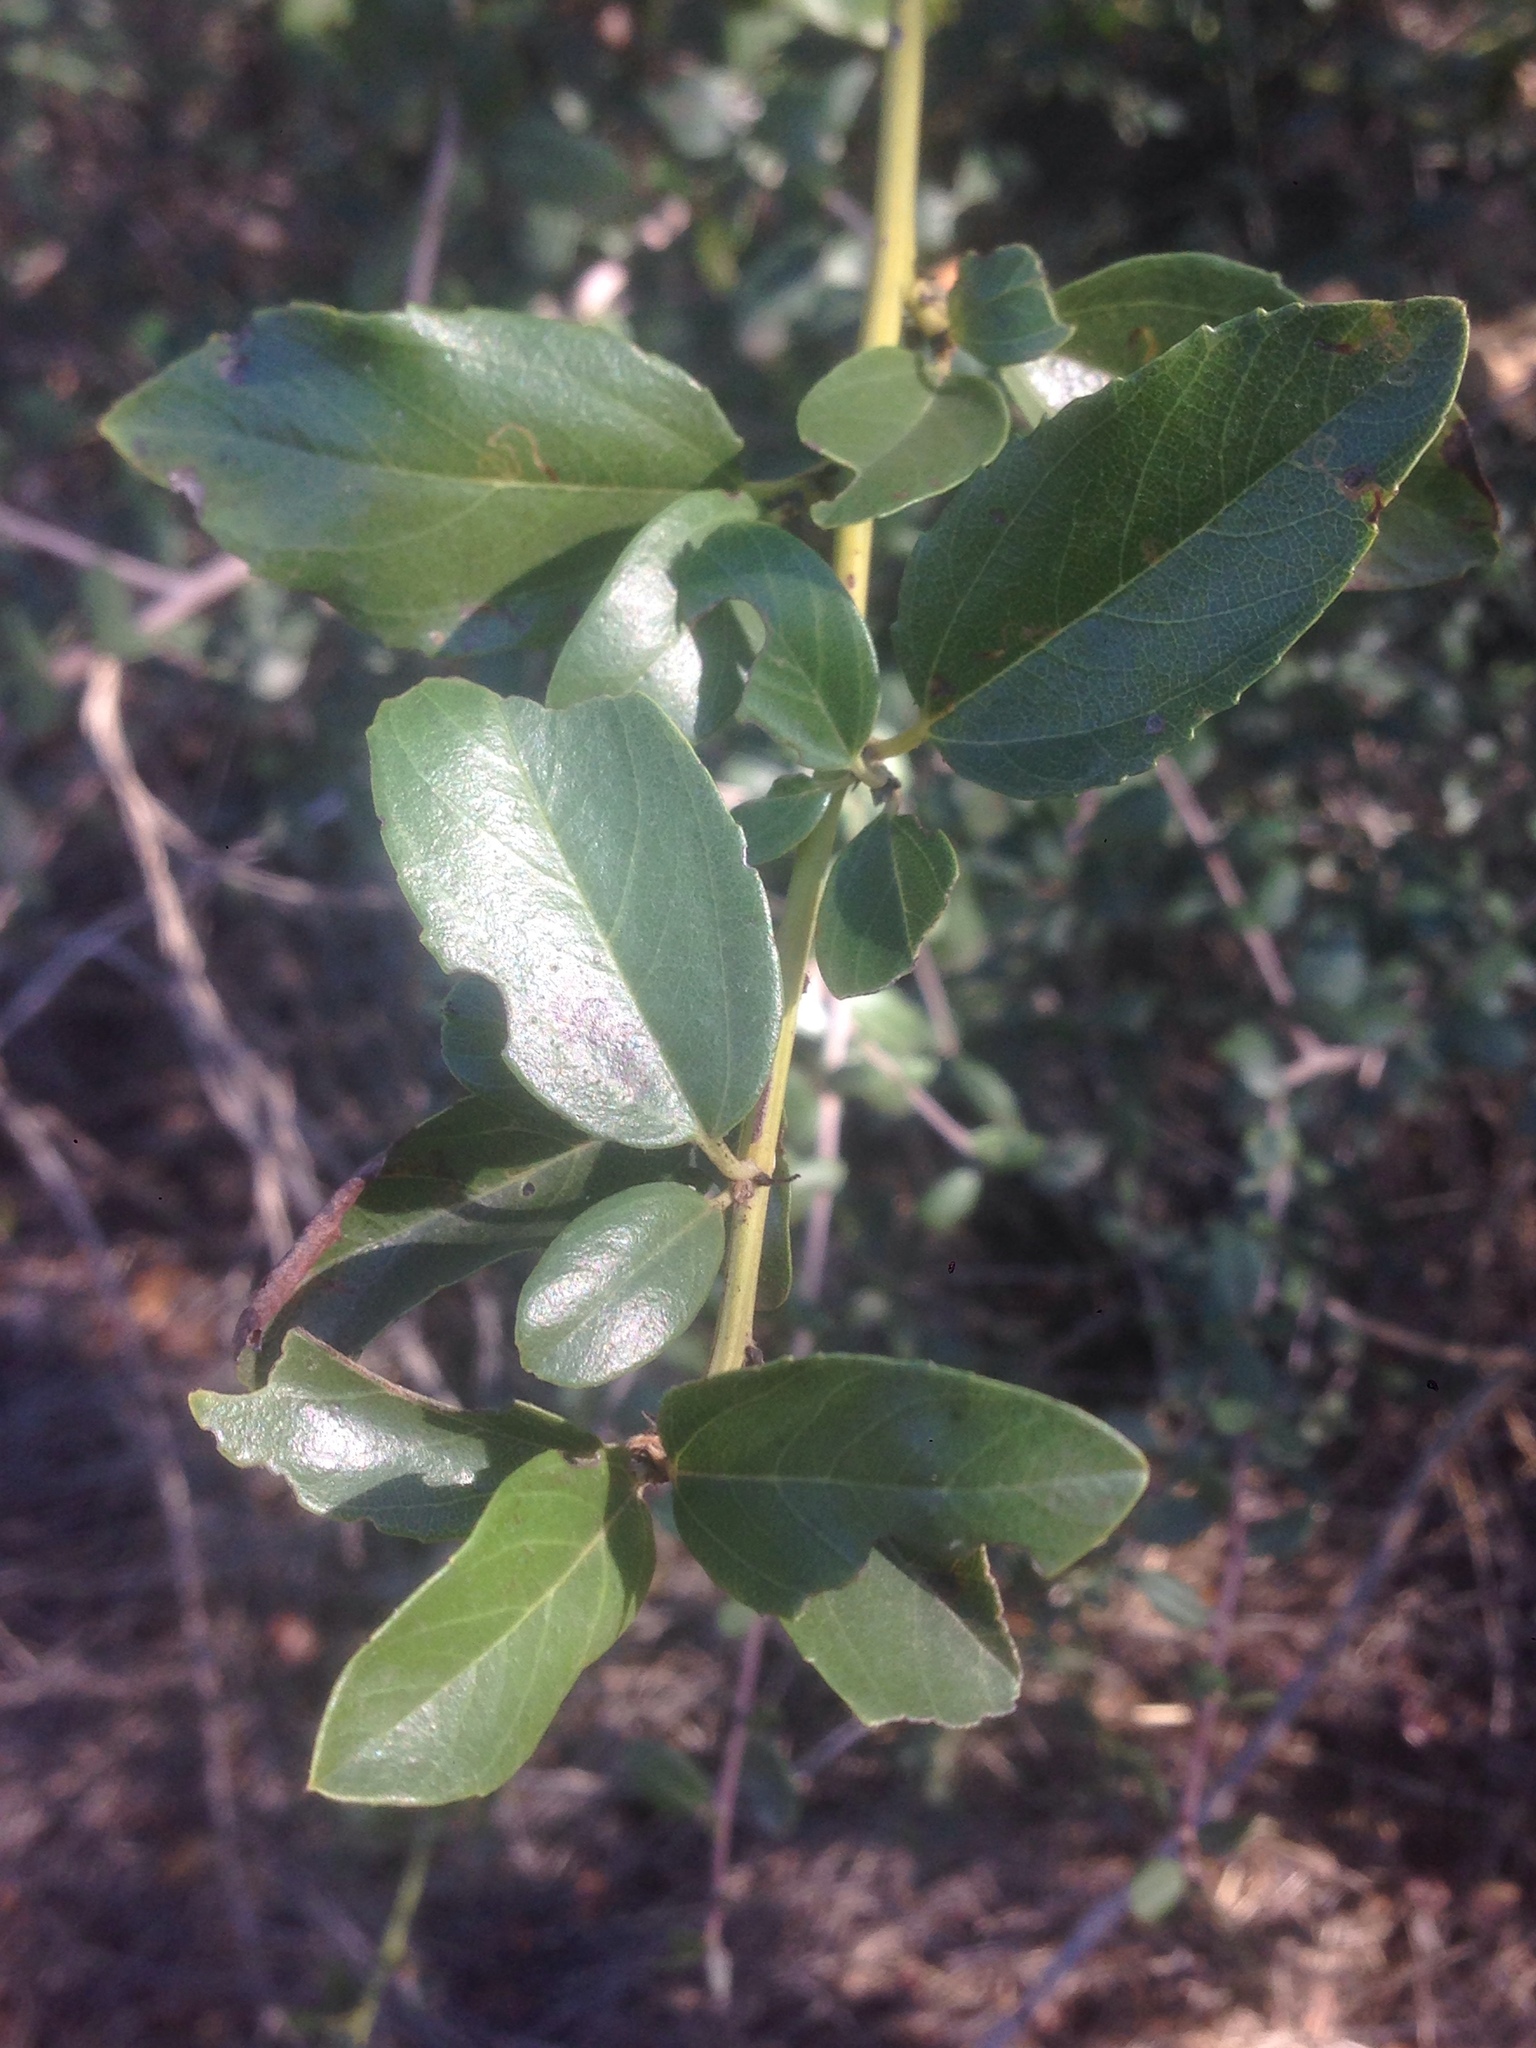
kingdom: Plantae
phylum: Tracheophyta
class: Magnoliopsida
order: Rosales
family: Rhamnaceae
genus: Ceanothus
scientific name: Ceanothus spinosus
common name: Greenbark whitethorn
